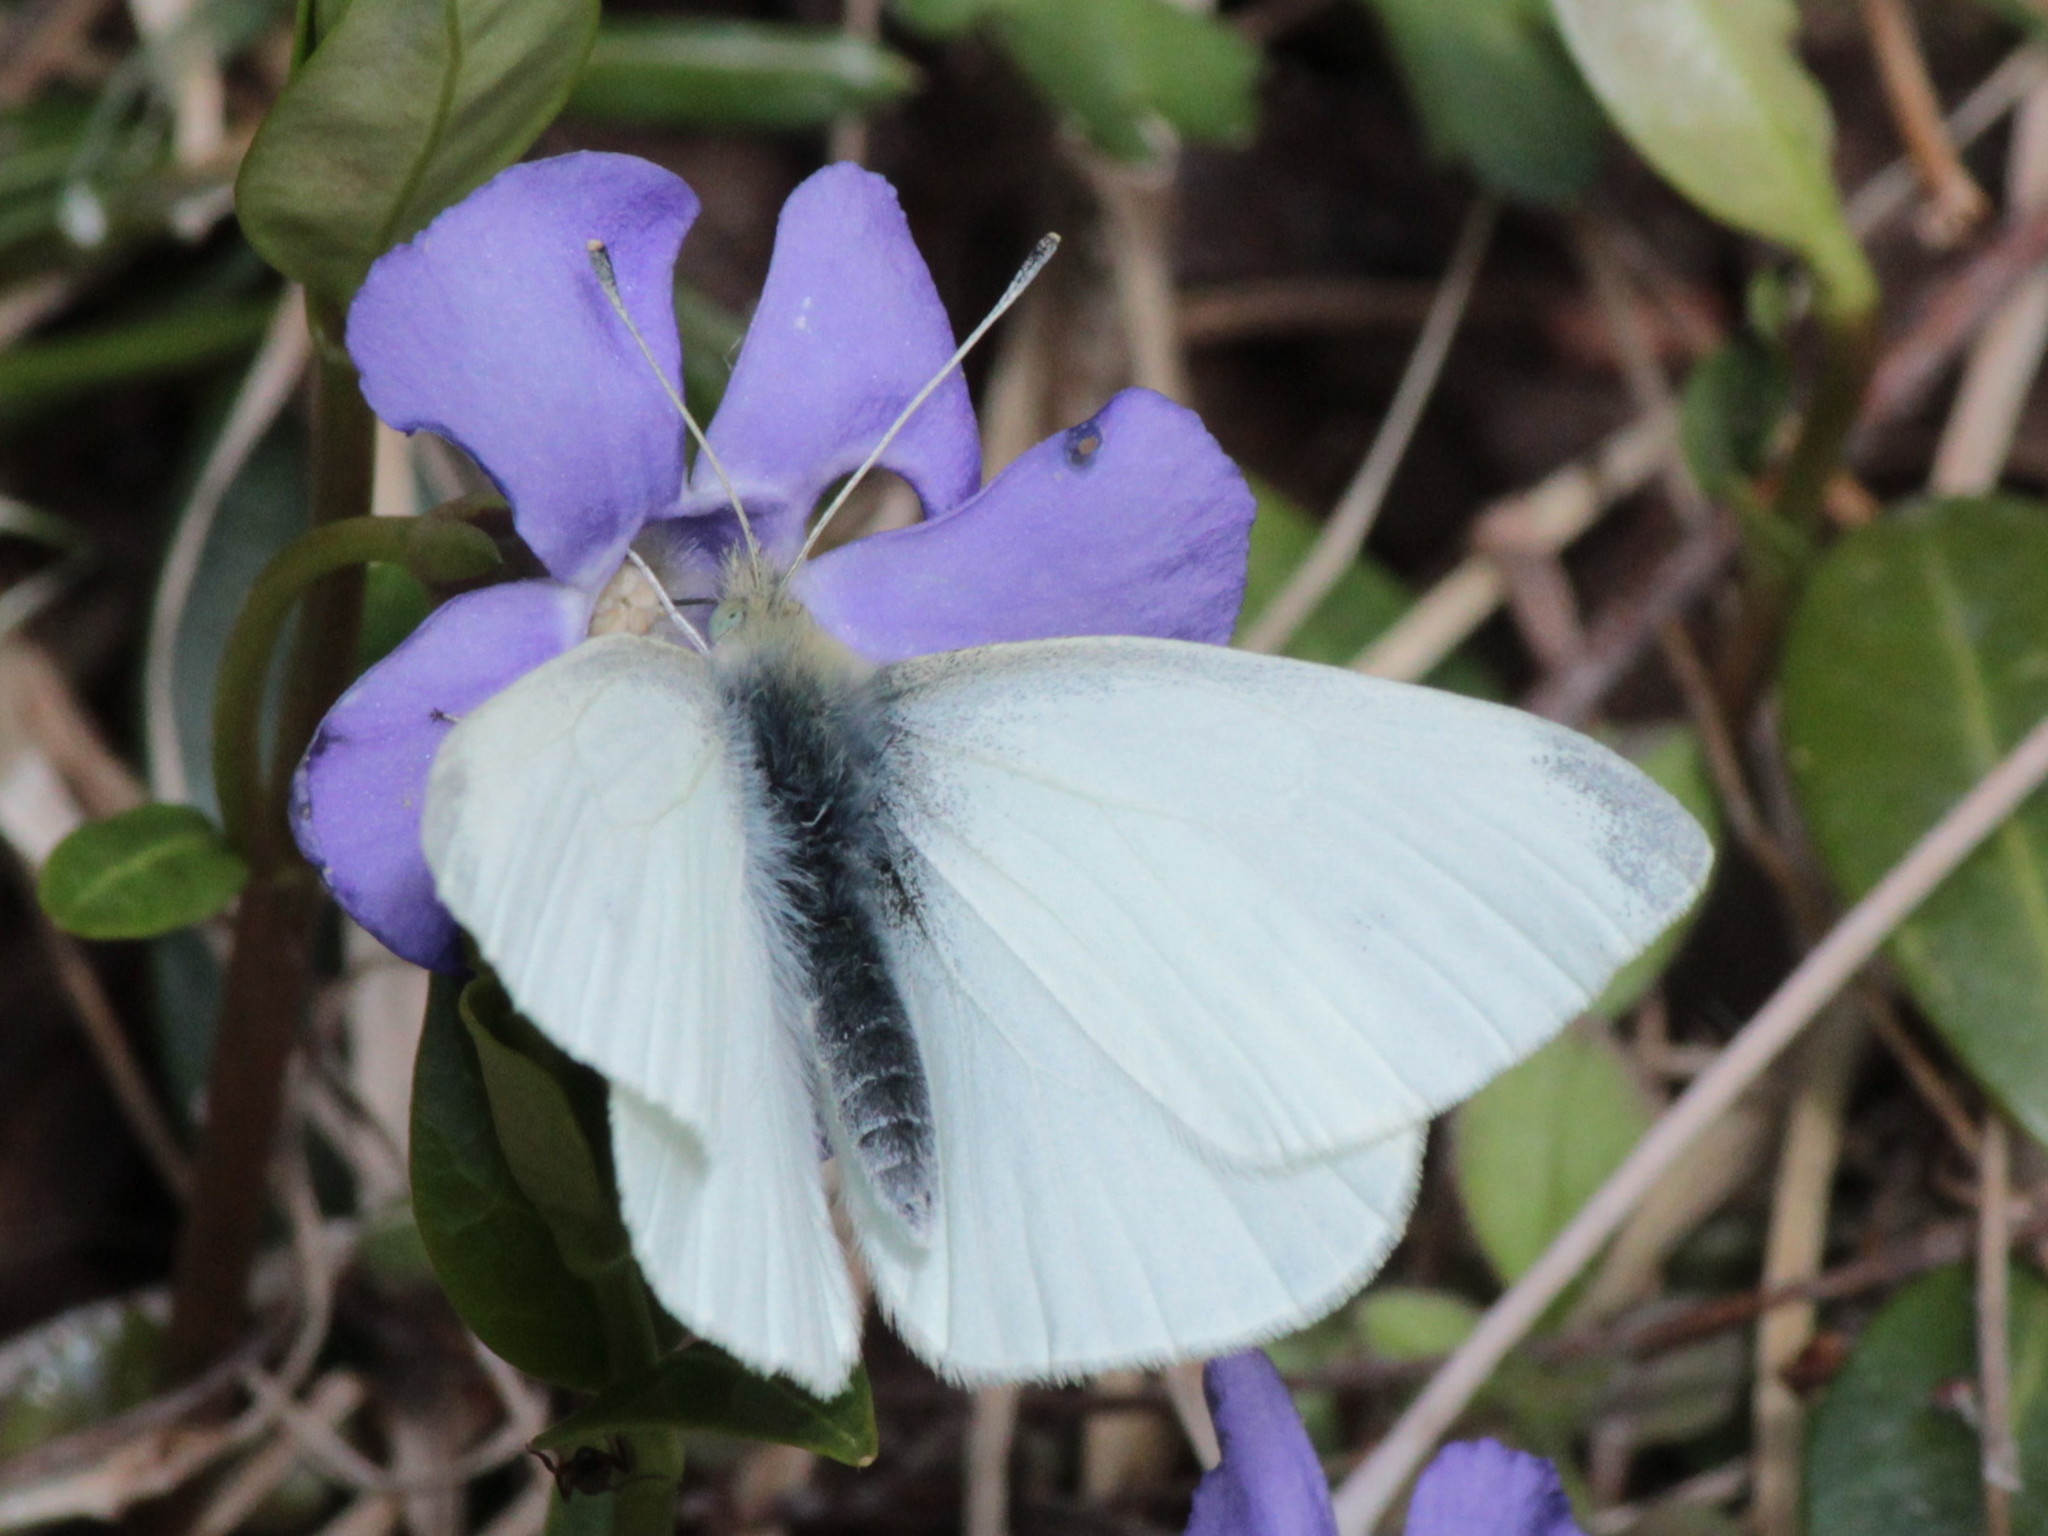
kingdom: Animalia
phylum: Arthropoda
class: Insecta
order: Lepidoptera
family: Pieridae
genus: Pieris
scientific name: Pieris rapae
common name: Small white
